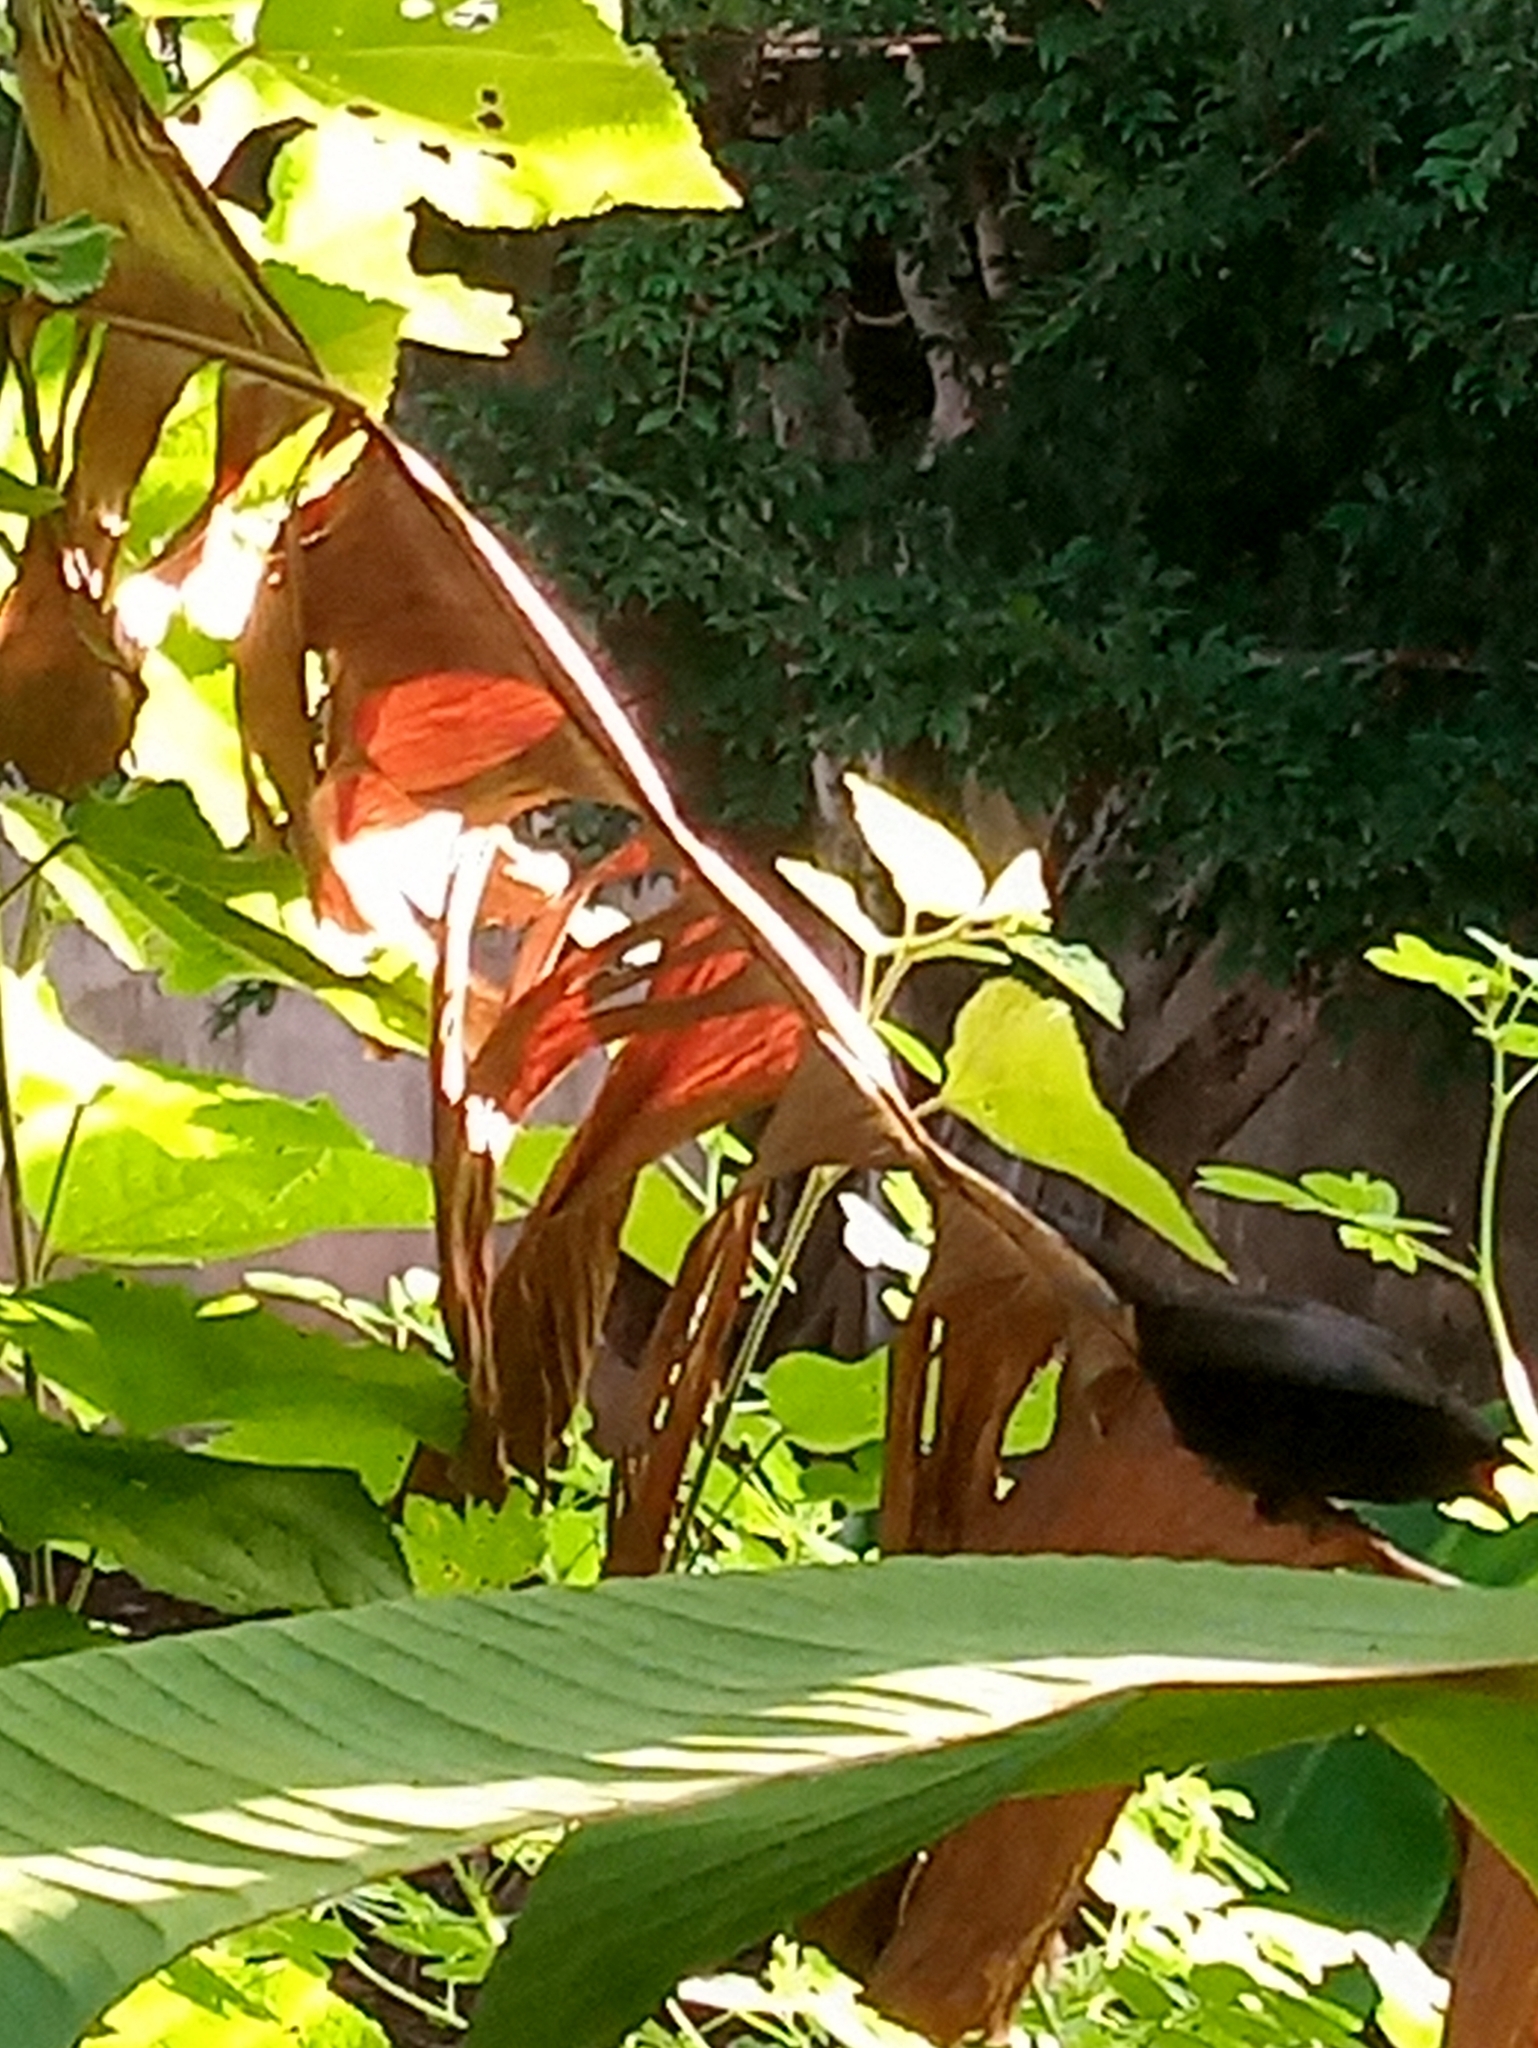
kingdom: Animalia
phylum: Chordata
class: Aves
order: Passeriformes
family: Icteridae
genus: Molothrus
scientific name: Molothrus bonariensis
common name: Shiny cowbird
